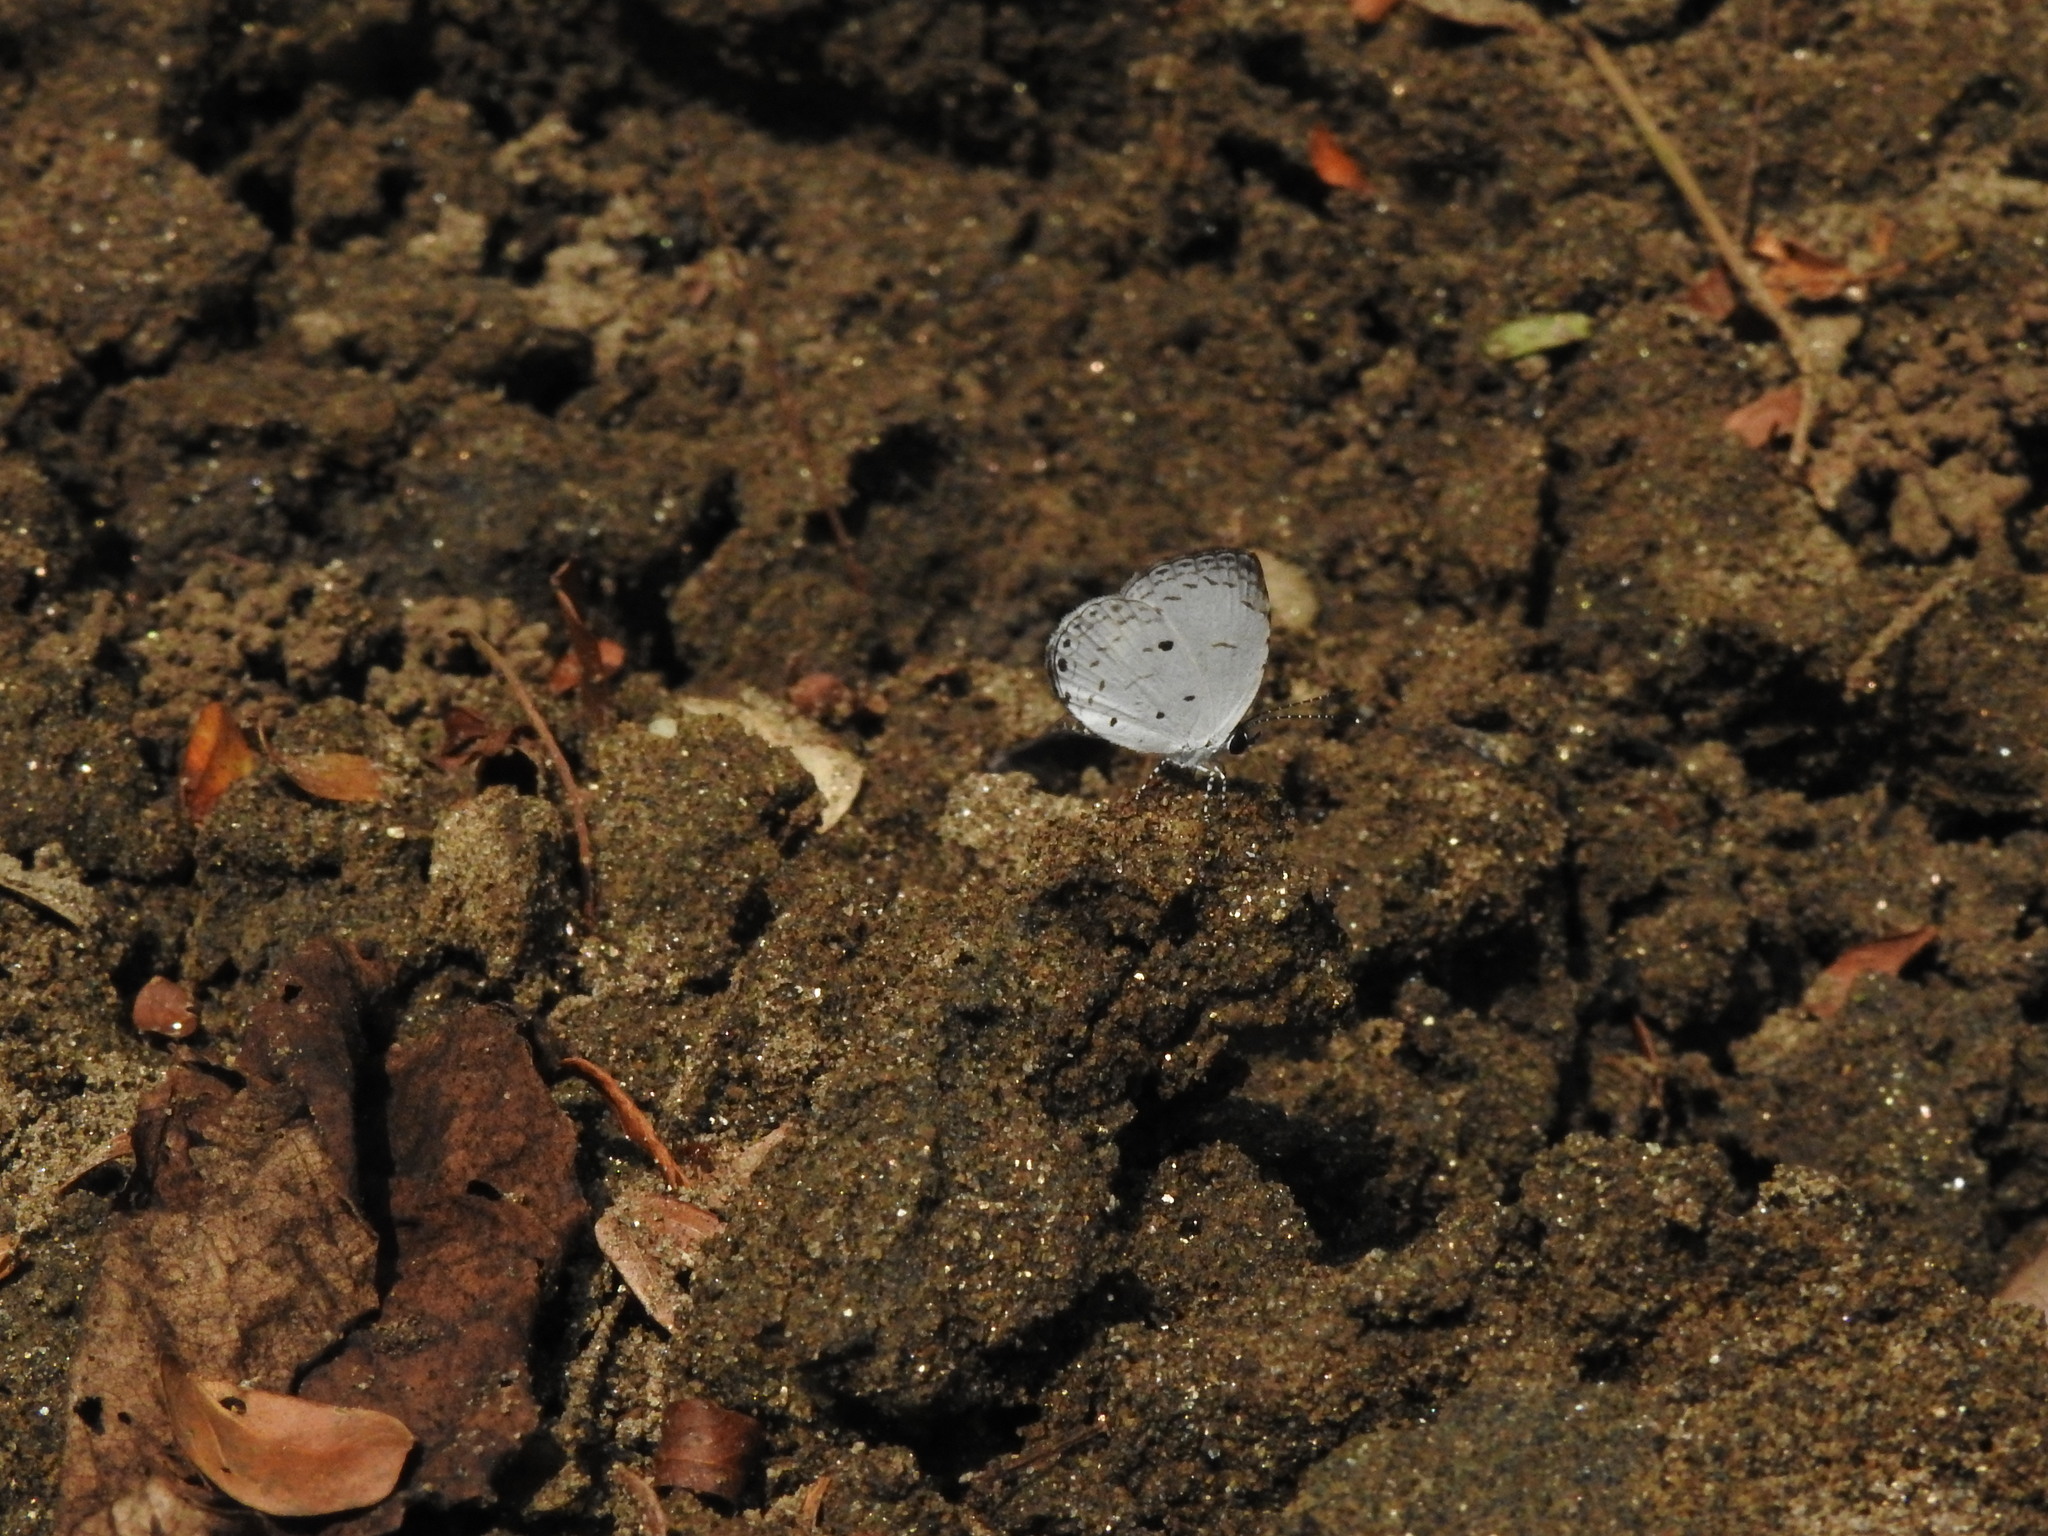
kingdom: Animalia
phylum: Arthropoda
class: Insecta
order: Lepidoptera
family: Lycaenidae
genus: Neopithecops
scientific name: Neopithecops zalmora
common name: Quaker
